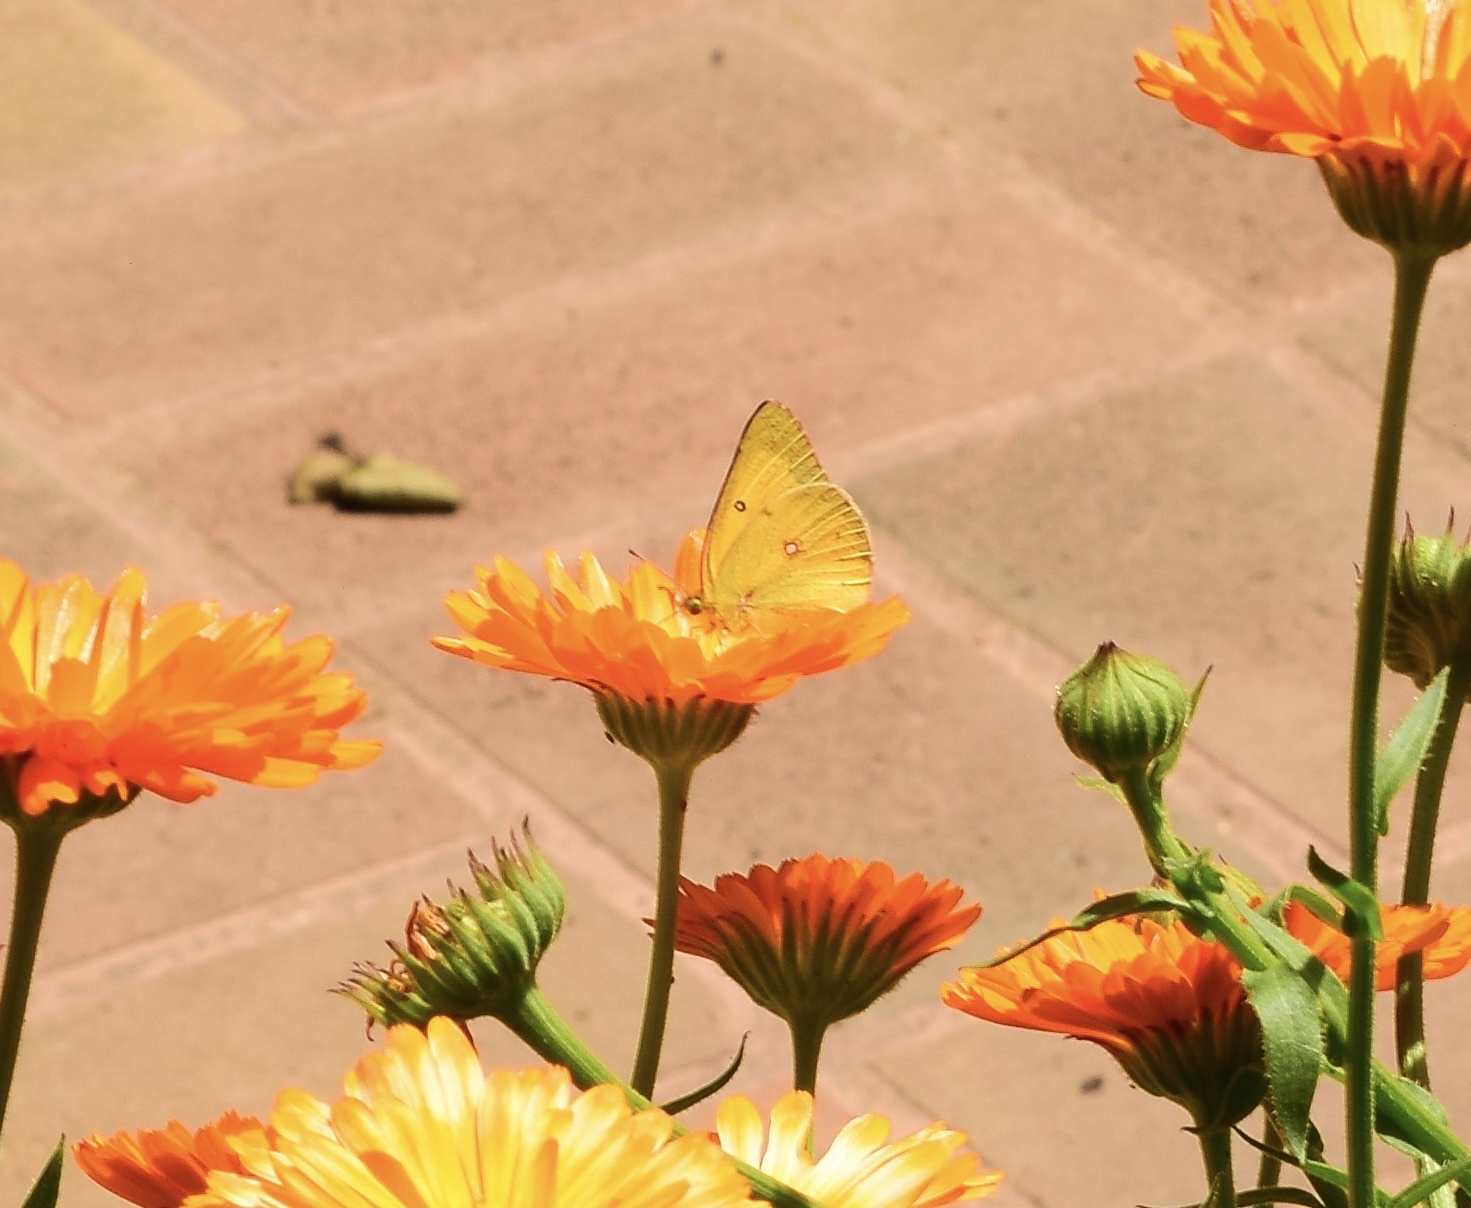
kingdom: Animalia
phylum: Arthropoda
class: Insecta
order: Lepidoptera
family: Pieridae
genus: Colias
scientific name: Colias eurytheme
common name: Alfalfa butterfly
